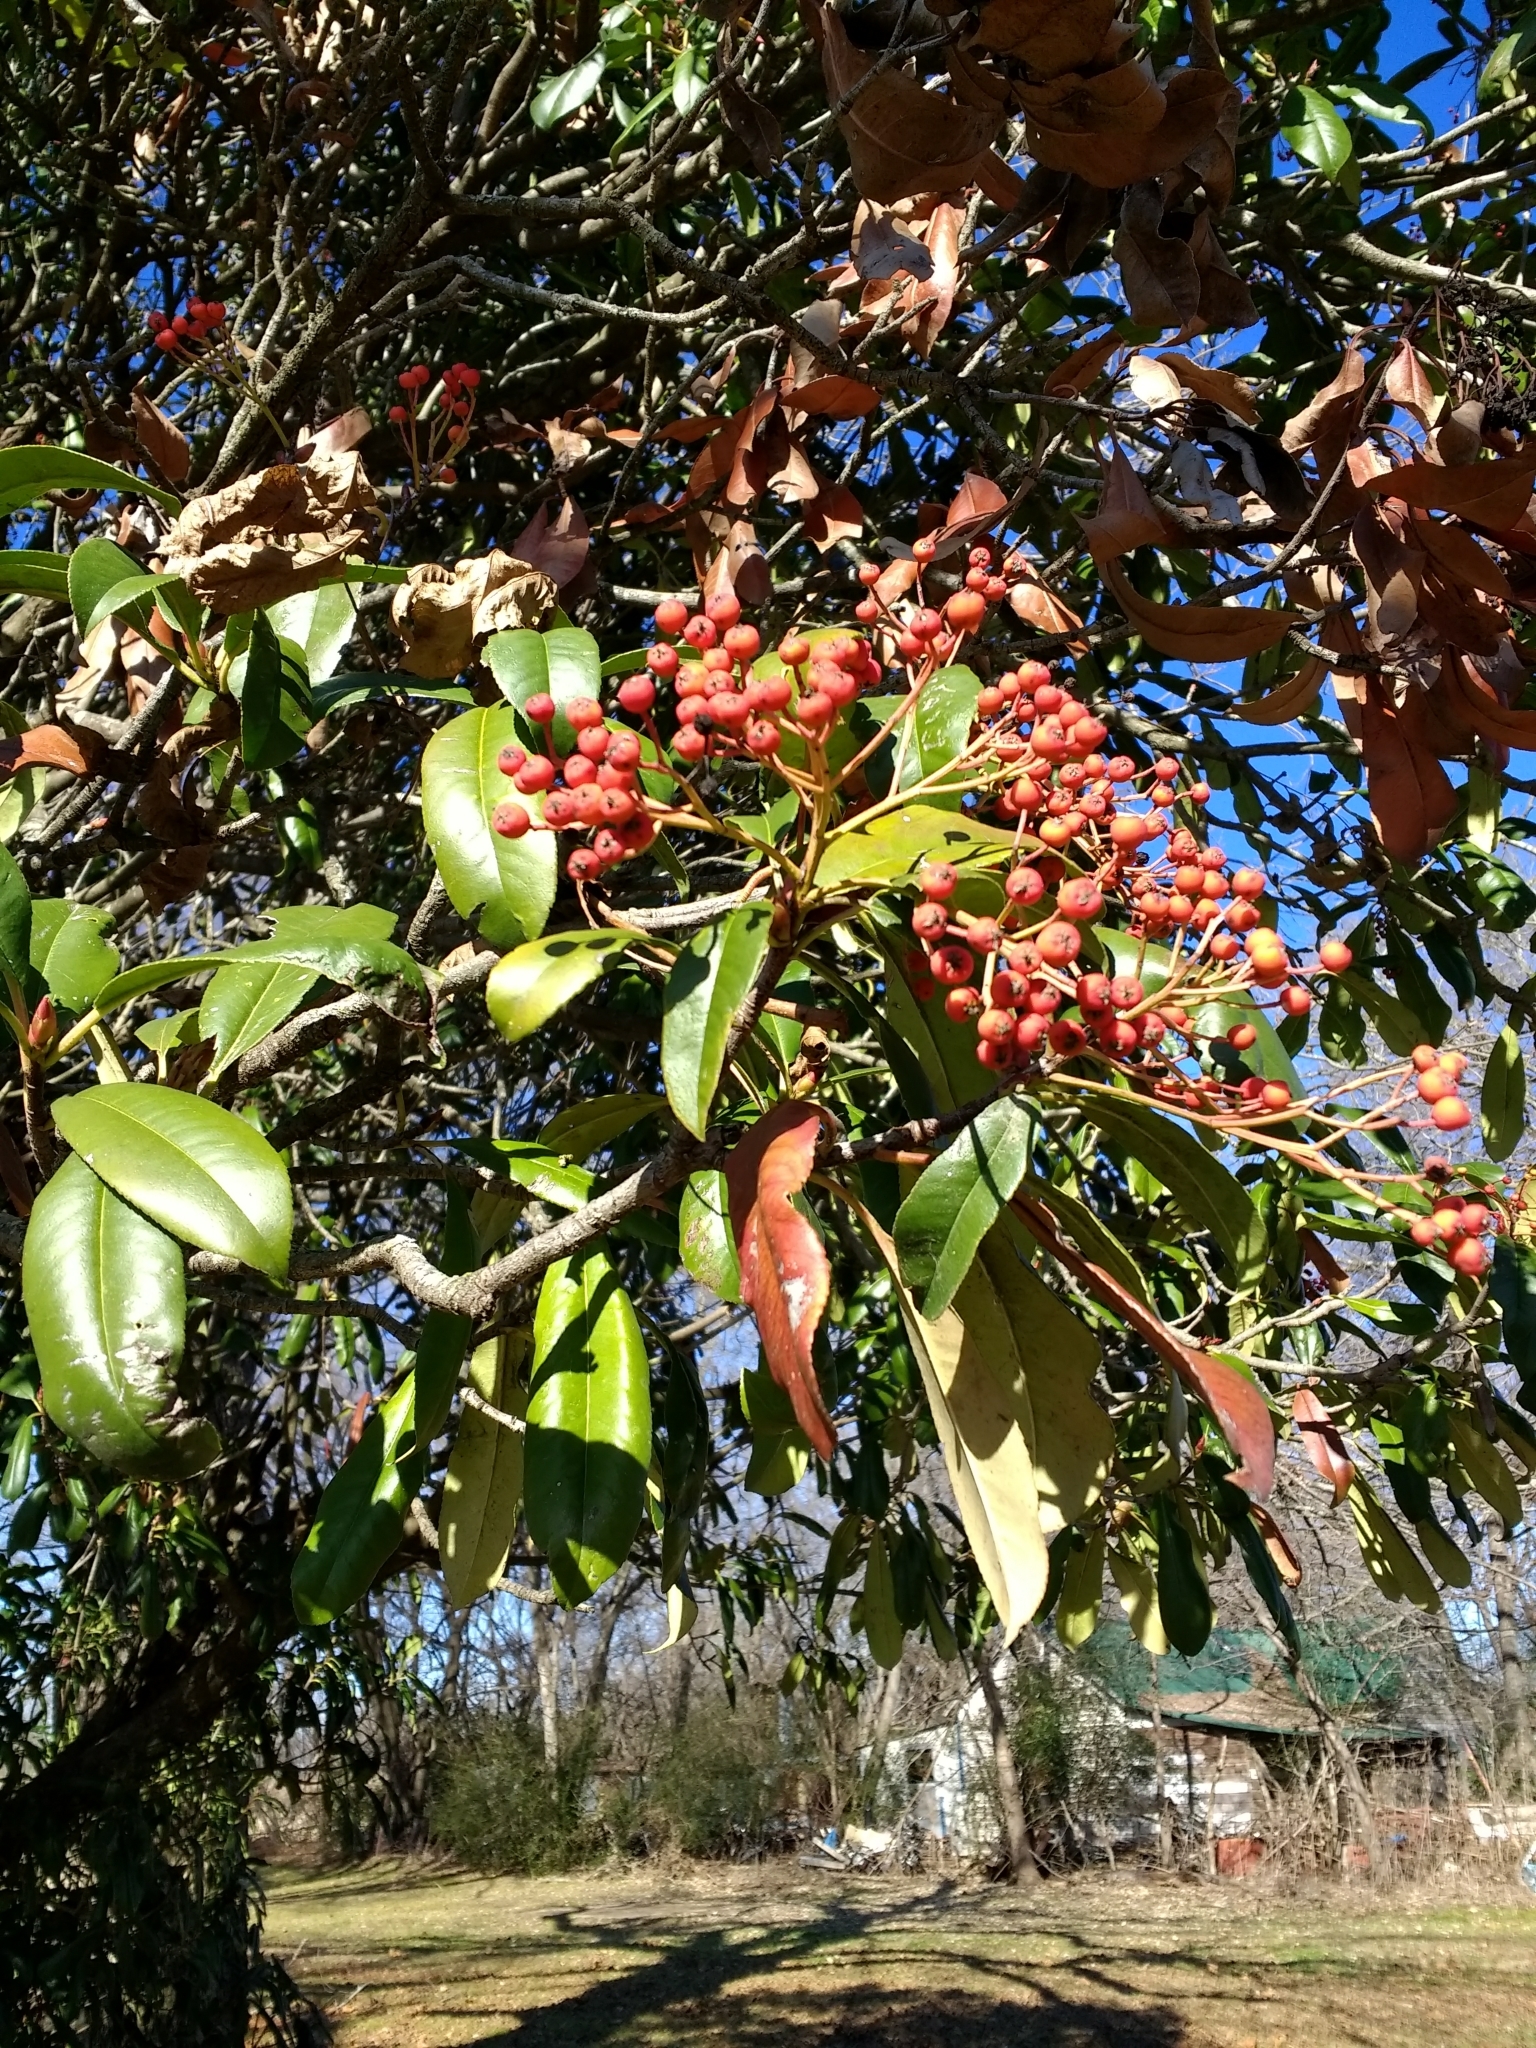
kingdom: Plantae
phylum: Tracheophyta
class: Magnoliopsida
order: Rosales
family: Rosaceae
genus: Photinia
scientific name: Photinia serratifolia
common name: Taiwanese photinia
